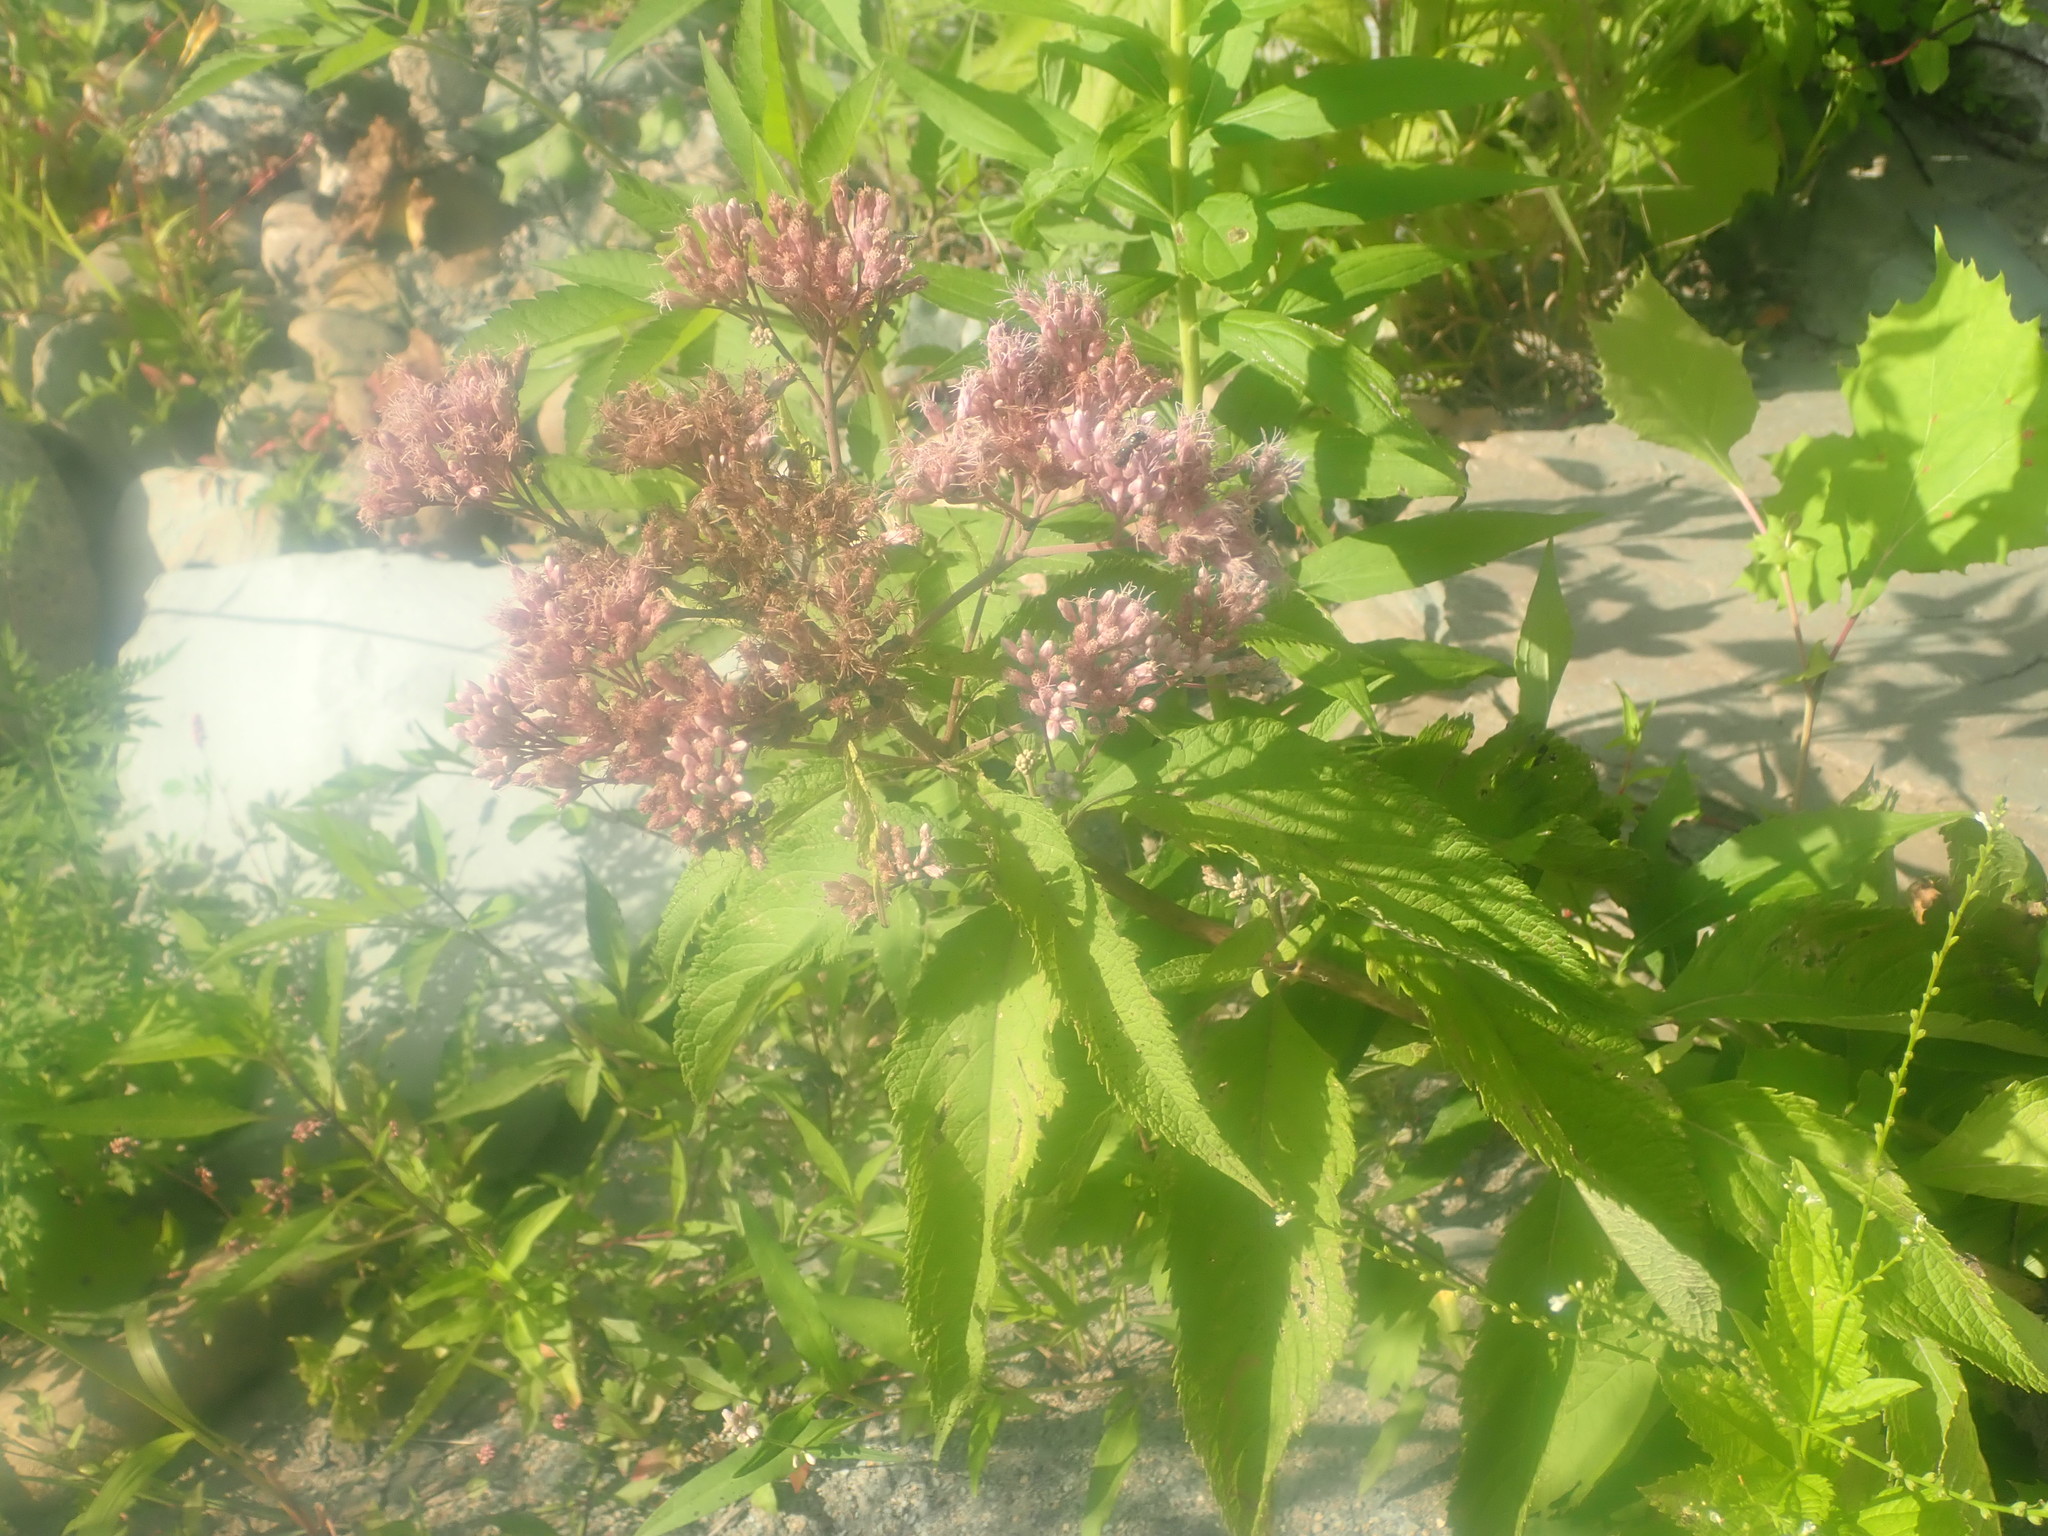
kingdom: Plantae
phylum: Tracheophyta
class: Magnoliopsida
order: Asterales
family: Asteraceae
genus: Eutrochium
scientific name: Eutrochium maculatum
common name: Spotted joe pye weed
